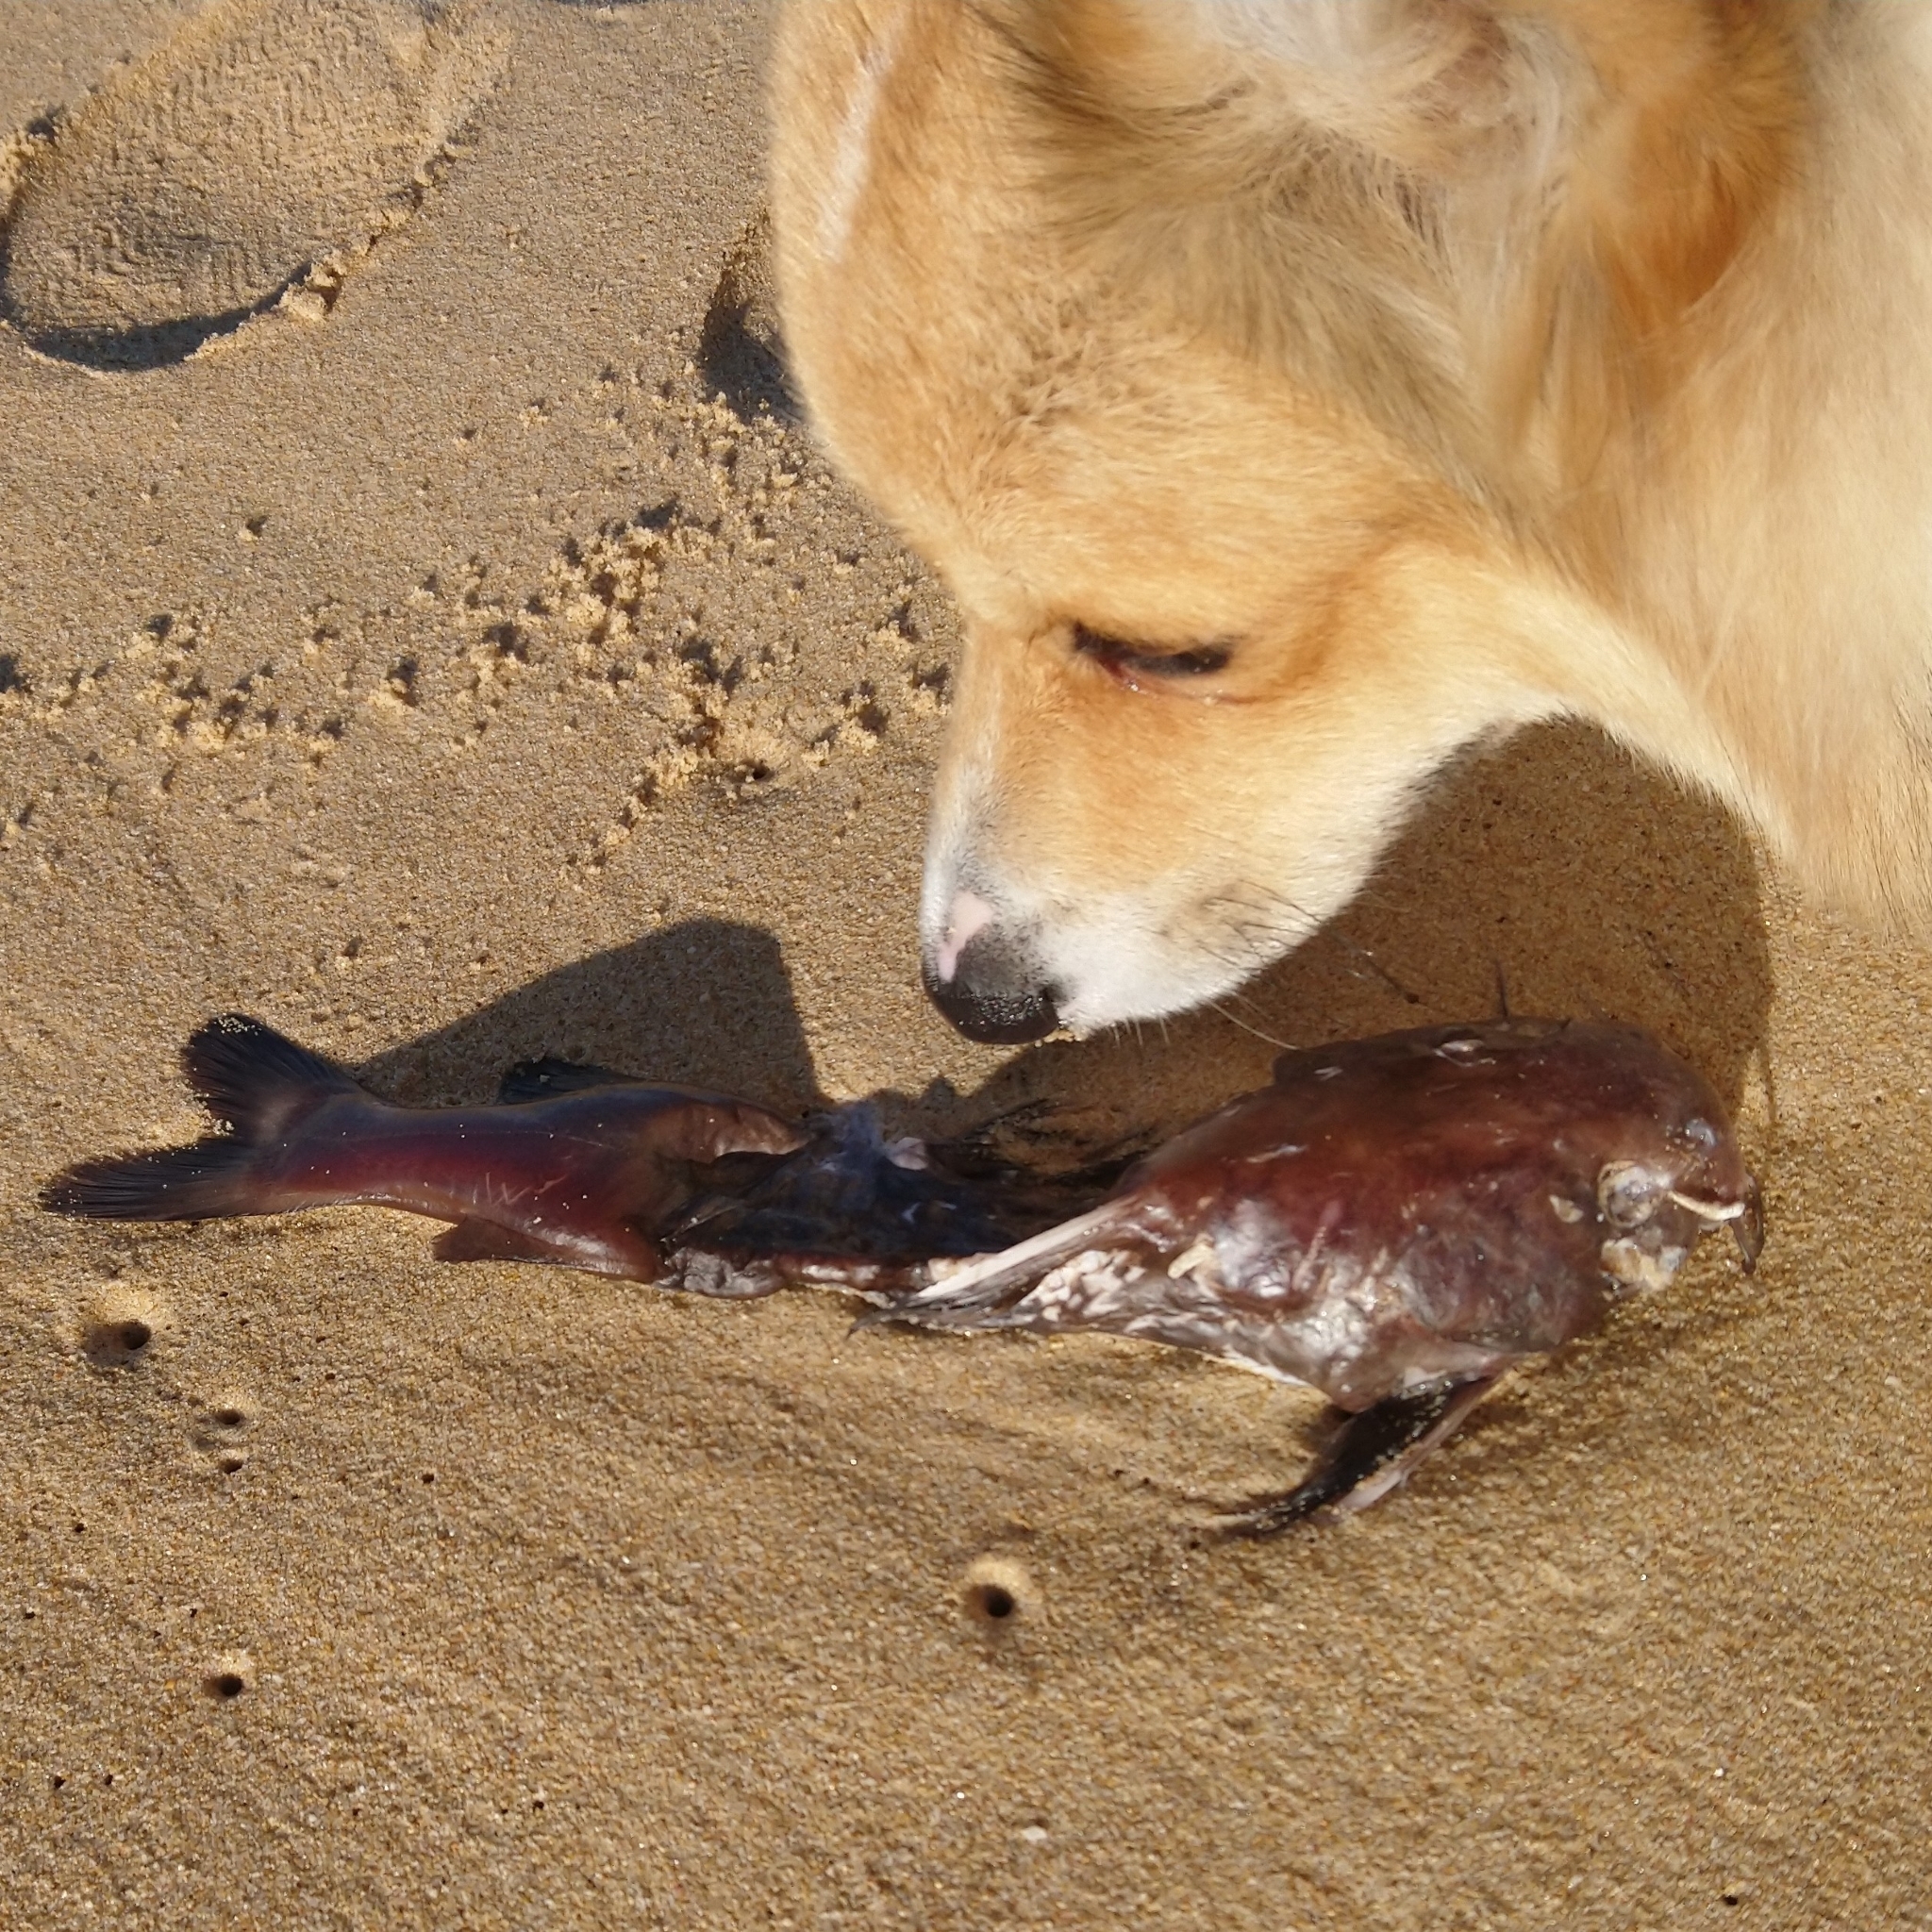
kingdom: Animalia
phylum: Chordata
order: Siluriformes
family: Ariidae
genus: Galeichthys
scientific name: Galeichthys feliceps
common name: White seacatfish
